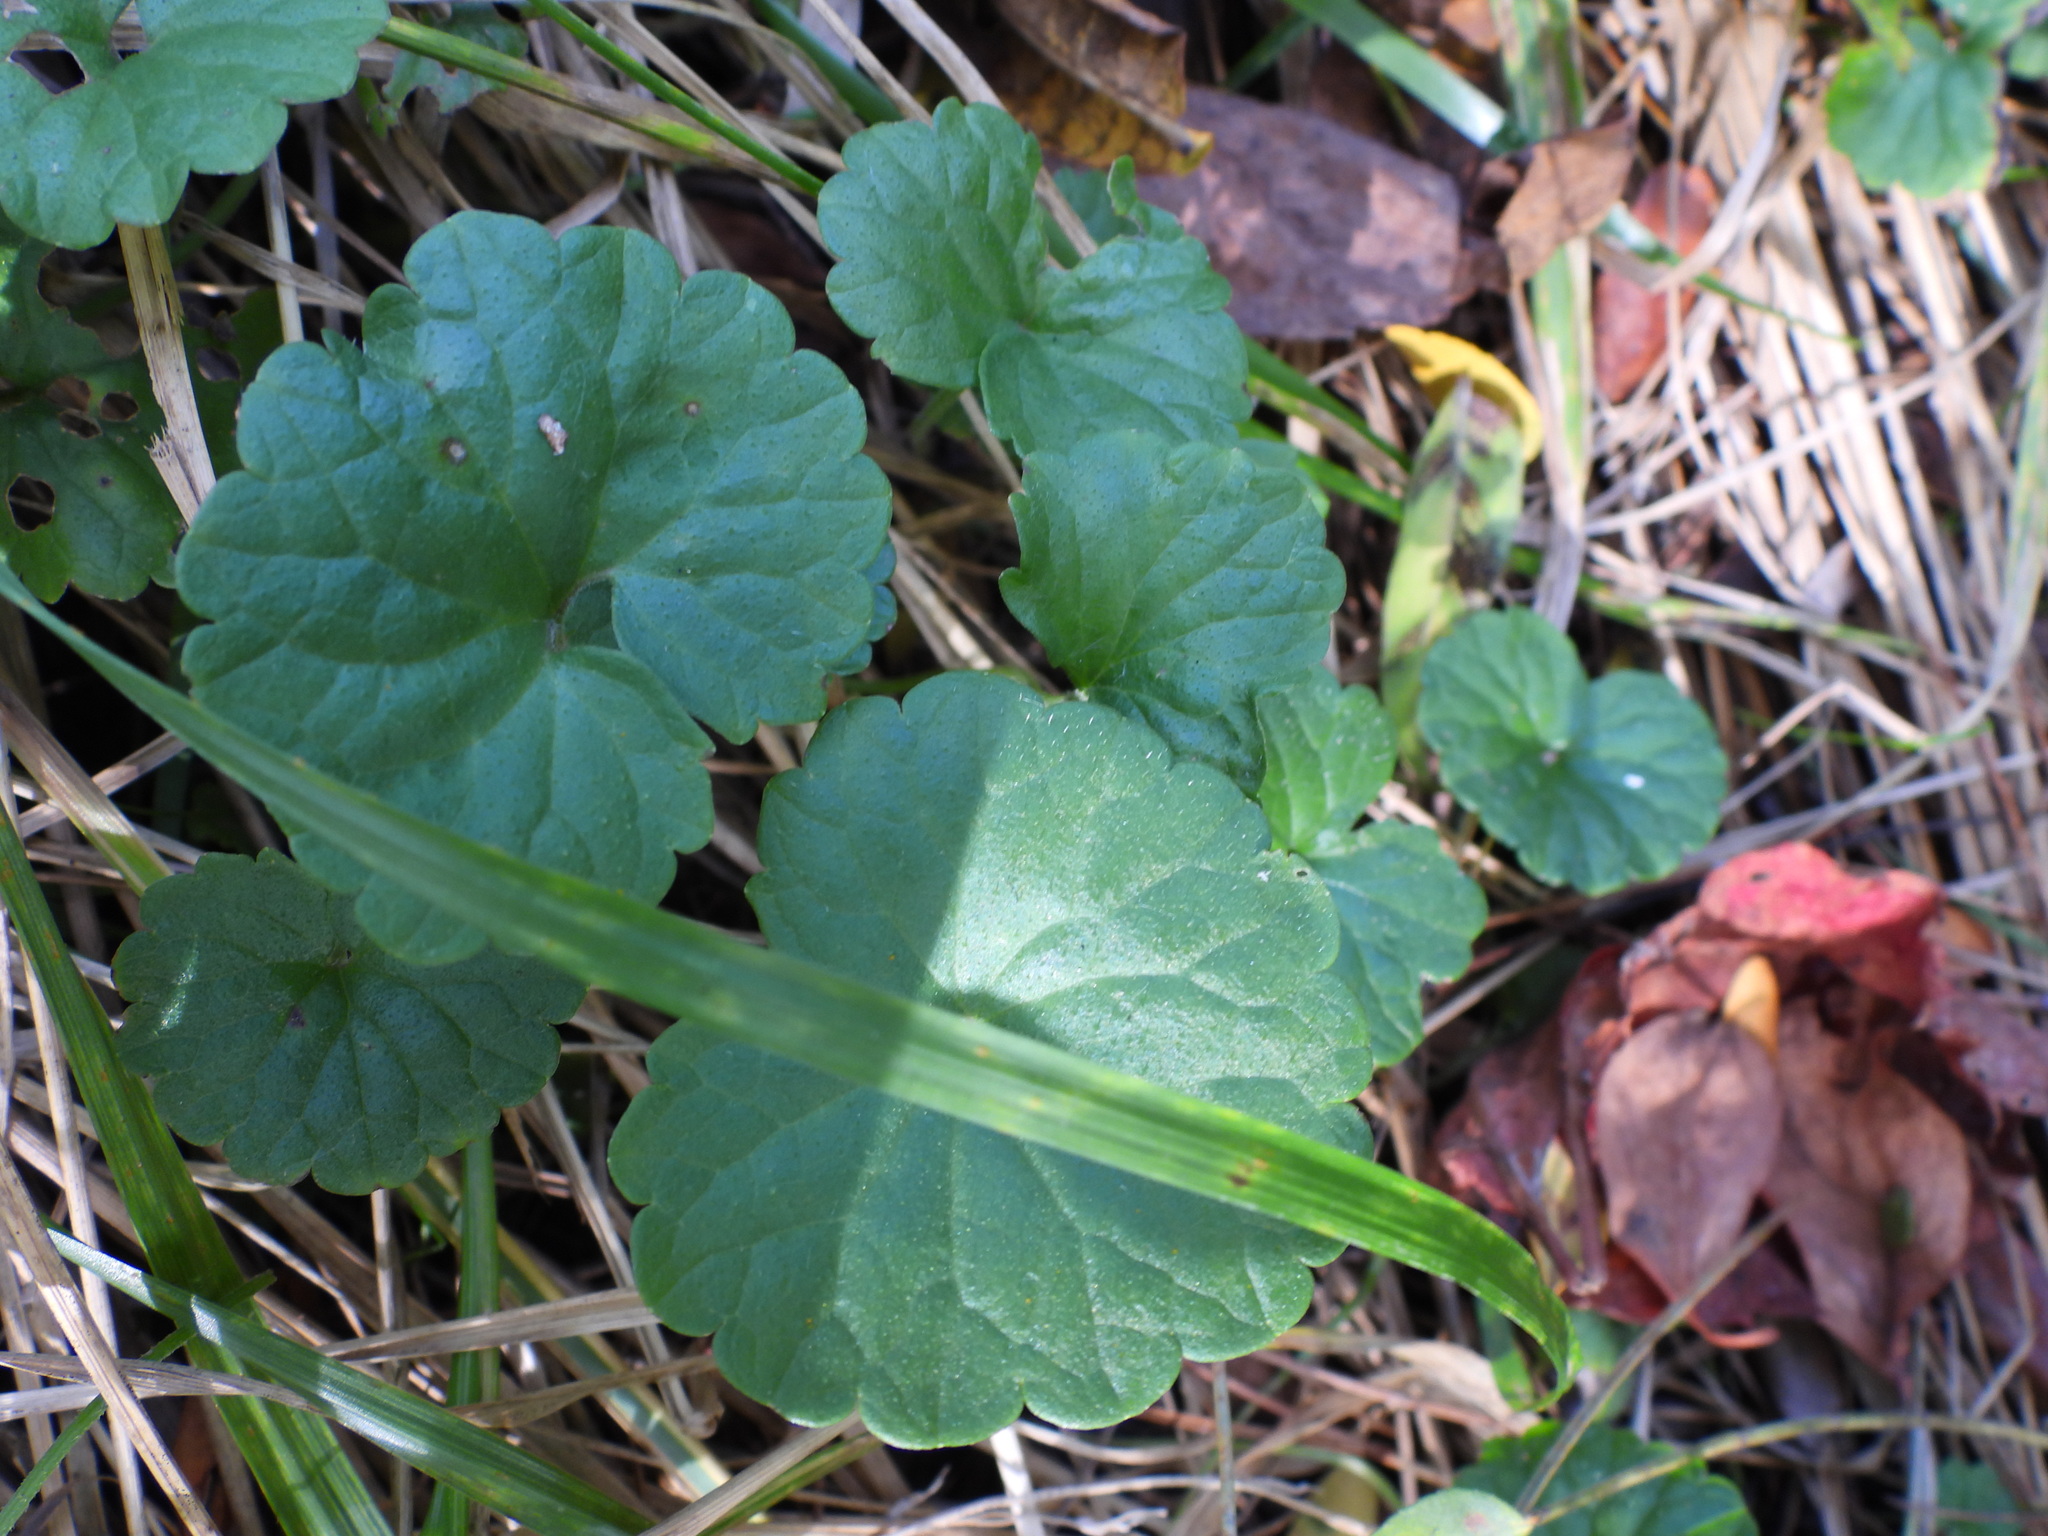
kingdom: Plantae
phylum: Tracheophyta
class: Magnoliopsida
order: Lamiales
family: Lamiaceae
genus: Glechoma
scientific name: Glechoma hederacea
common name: Ground ivy
